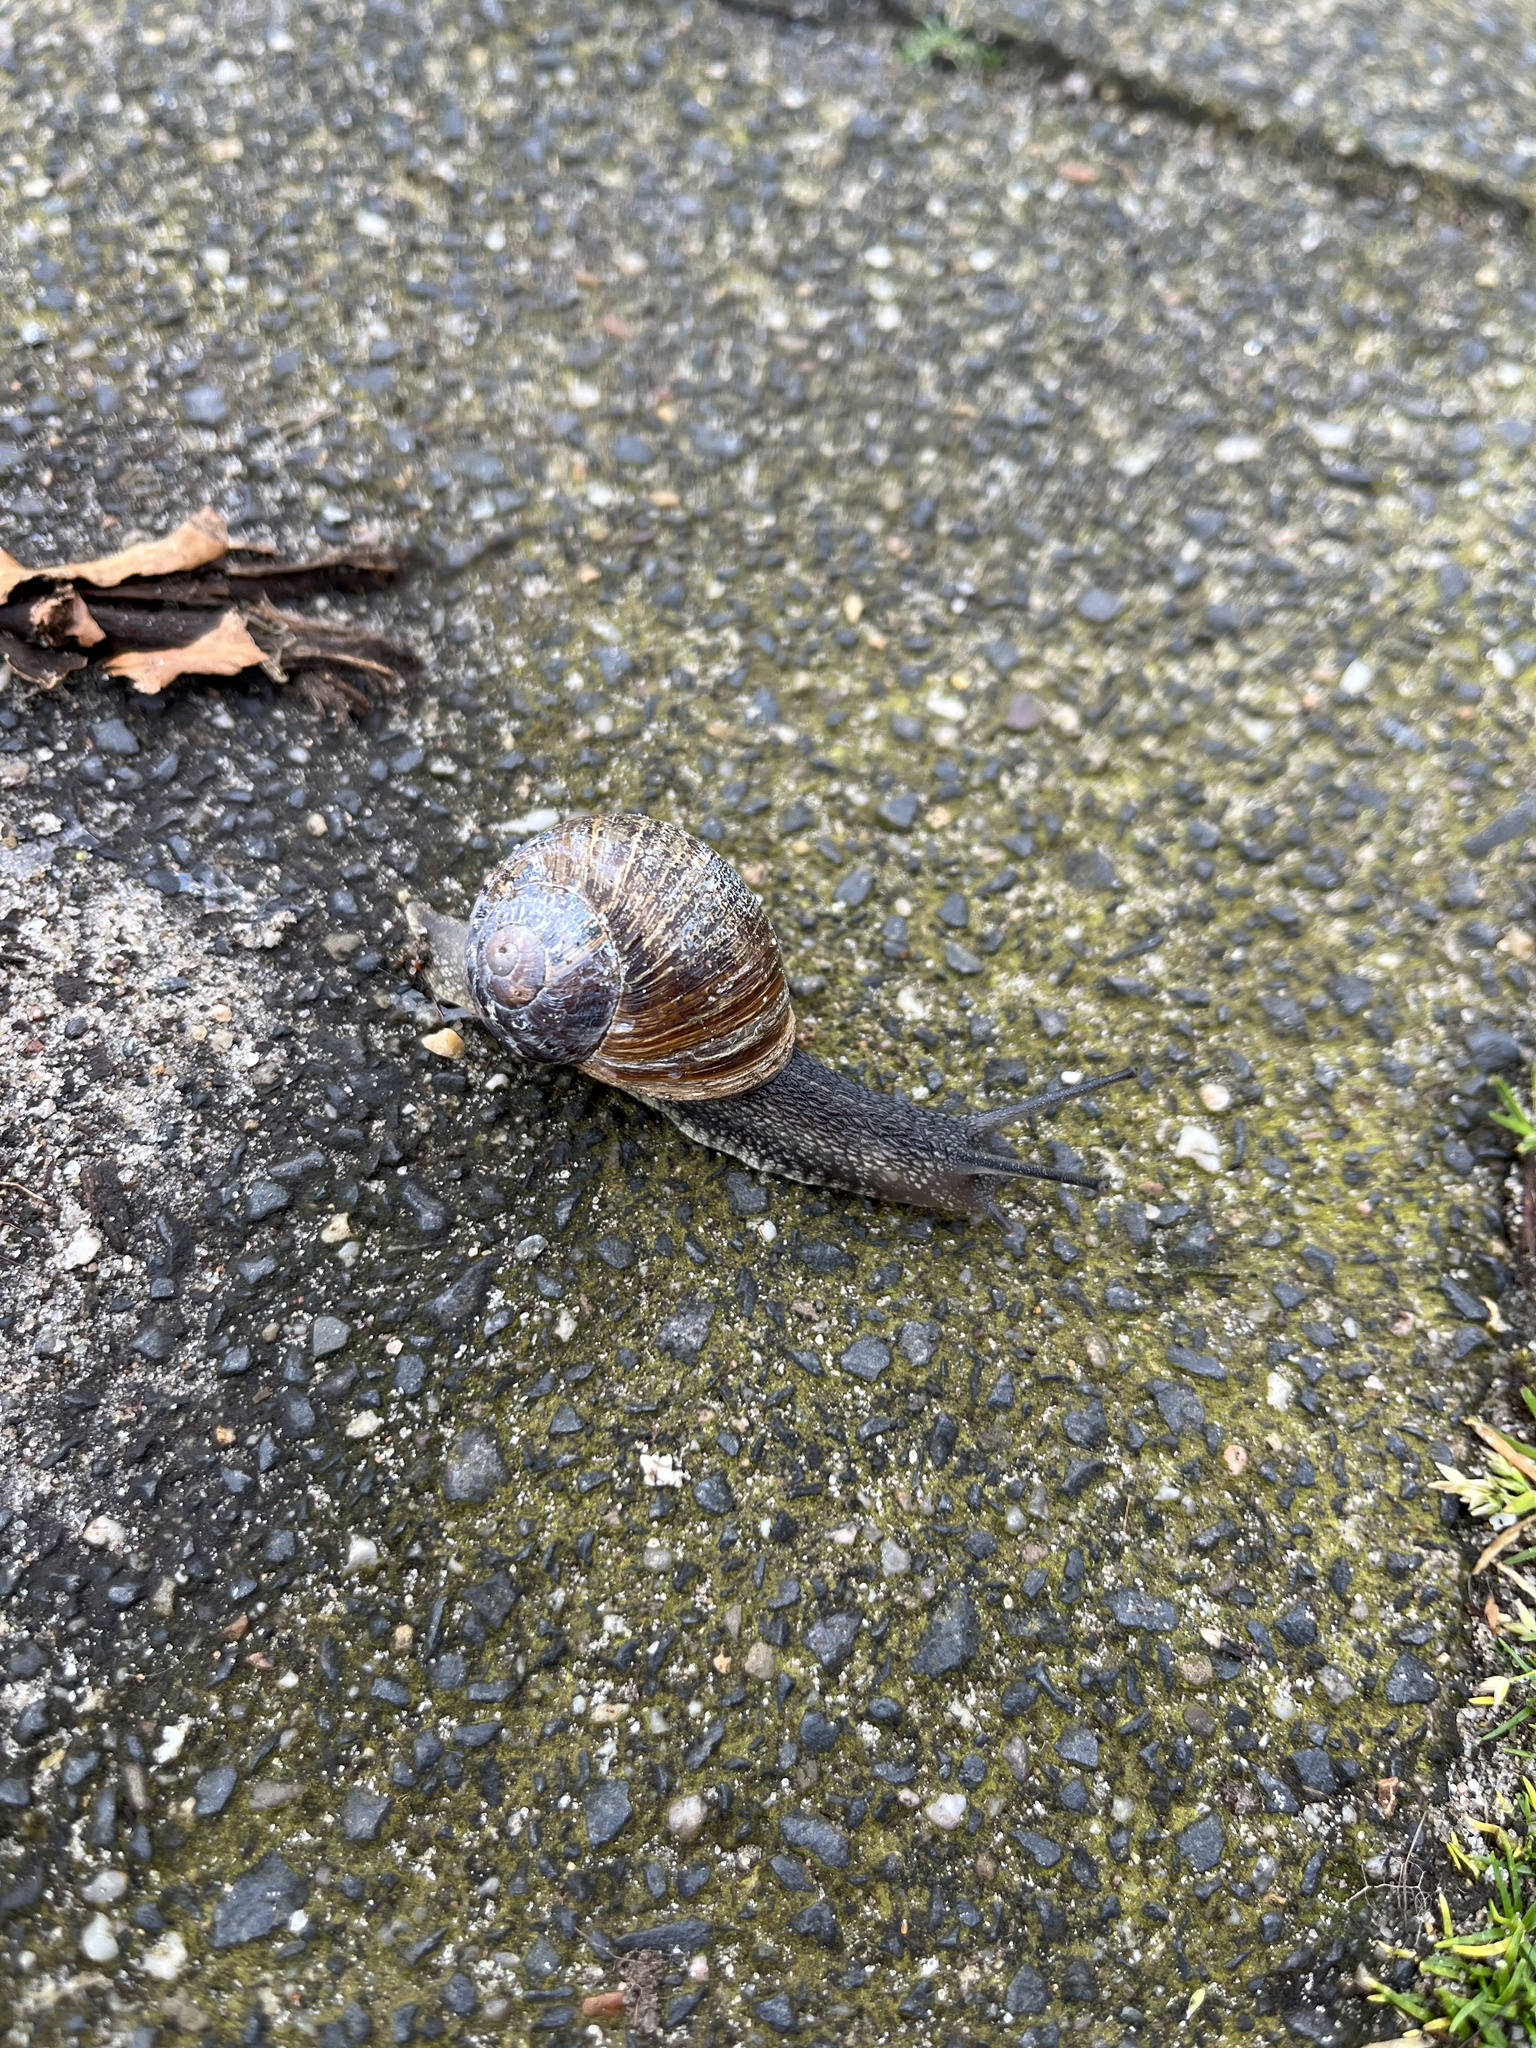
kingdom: Animalia
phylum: Mollusca
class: Gastropoda
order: Stylommatophora
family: Helicidae
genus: Cornu
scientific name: Cornu aspersum
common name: Brown garden snail
